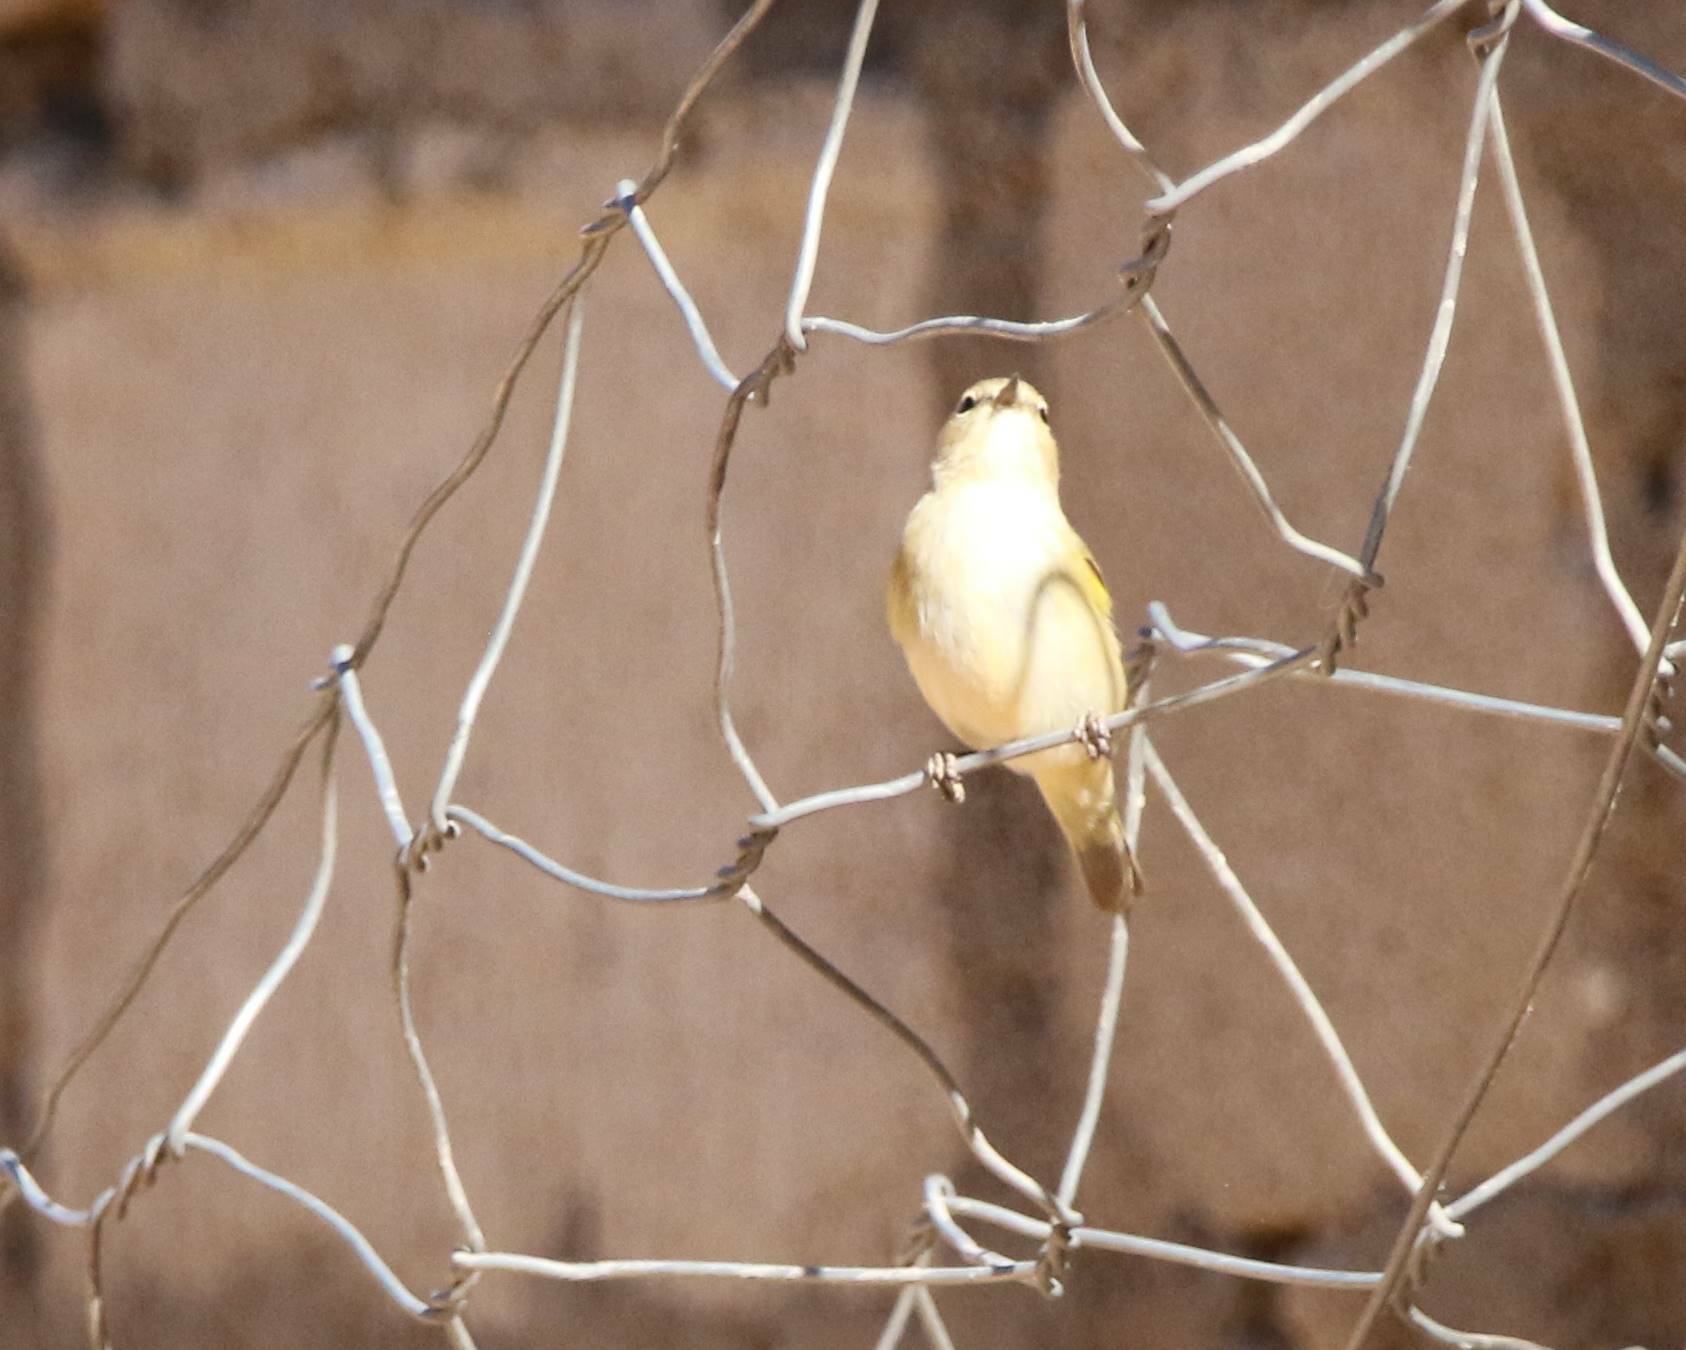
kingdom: Animalia
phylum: Chordata
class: Aves
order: Passeriformes
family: Phylloscopidae
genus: Phylloscopus
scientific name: Phylloscopus collybita
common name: Common chiffchaff
